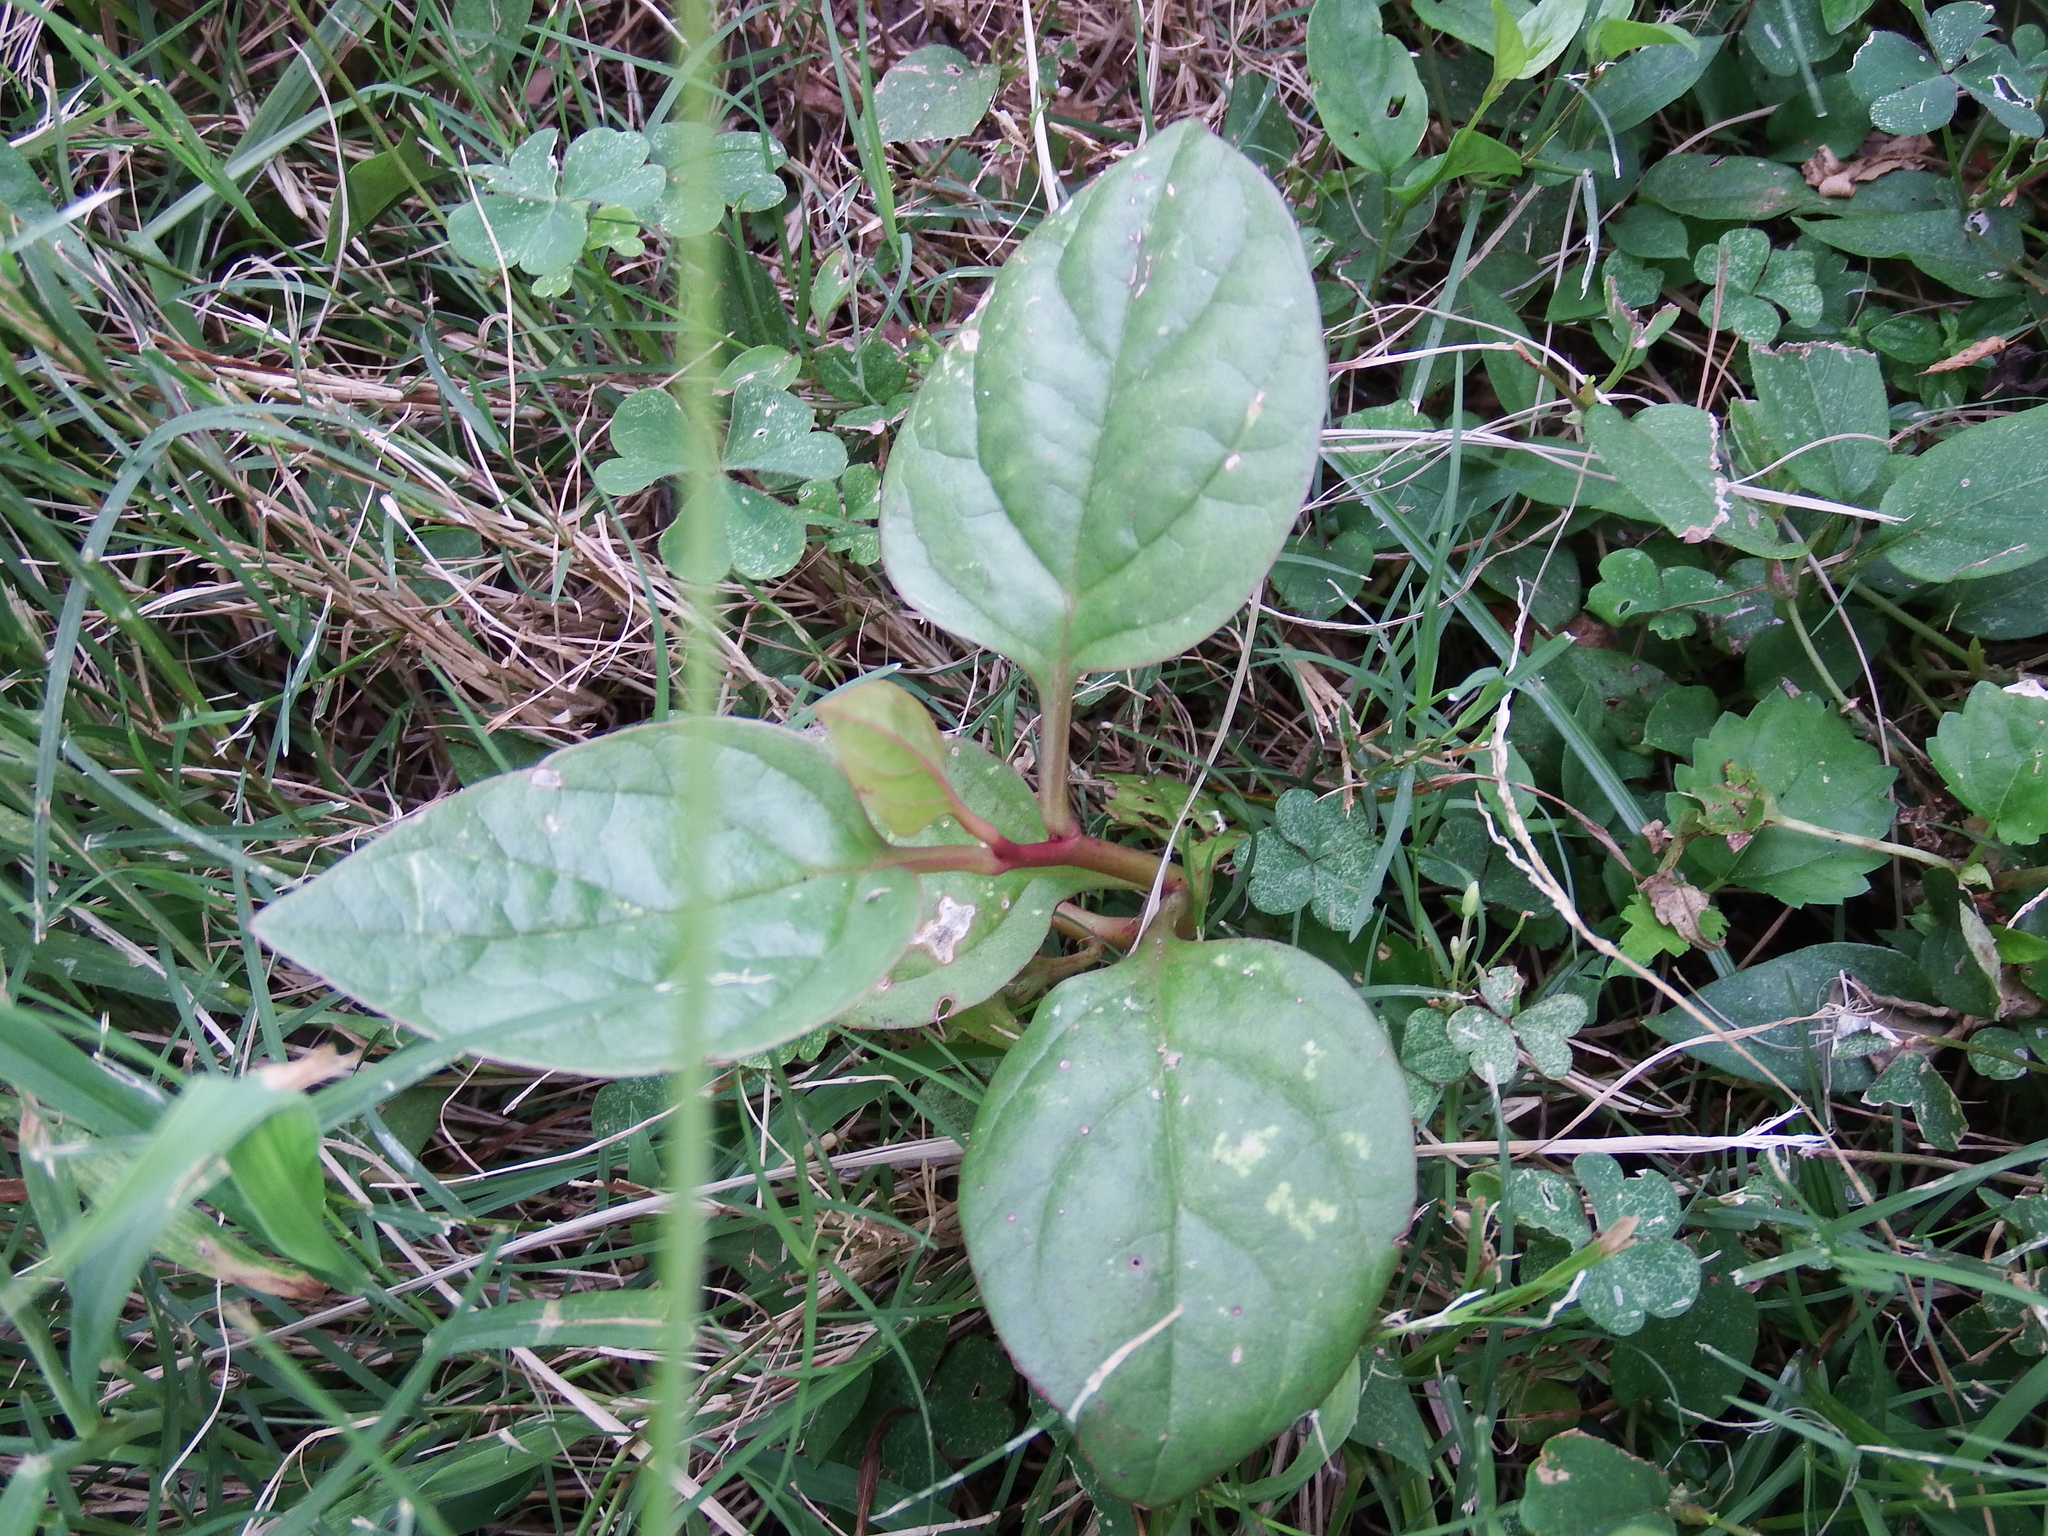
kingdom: Plantae
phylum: Tracheophyta
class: Magnoliopsida
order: Caryophyllales
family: Basellaceae
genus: Basella
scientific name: Basella alba
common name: Indian spinach
